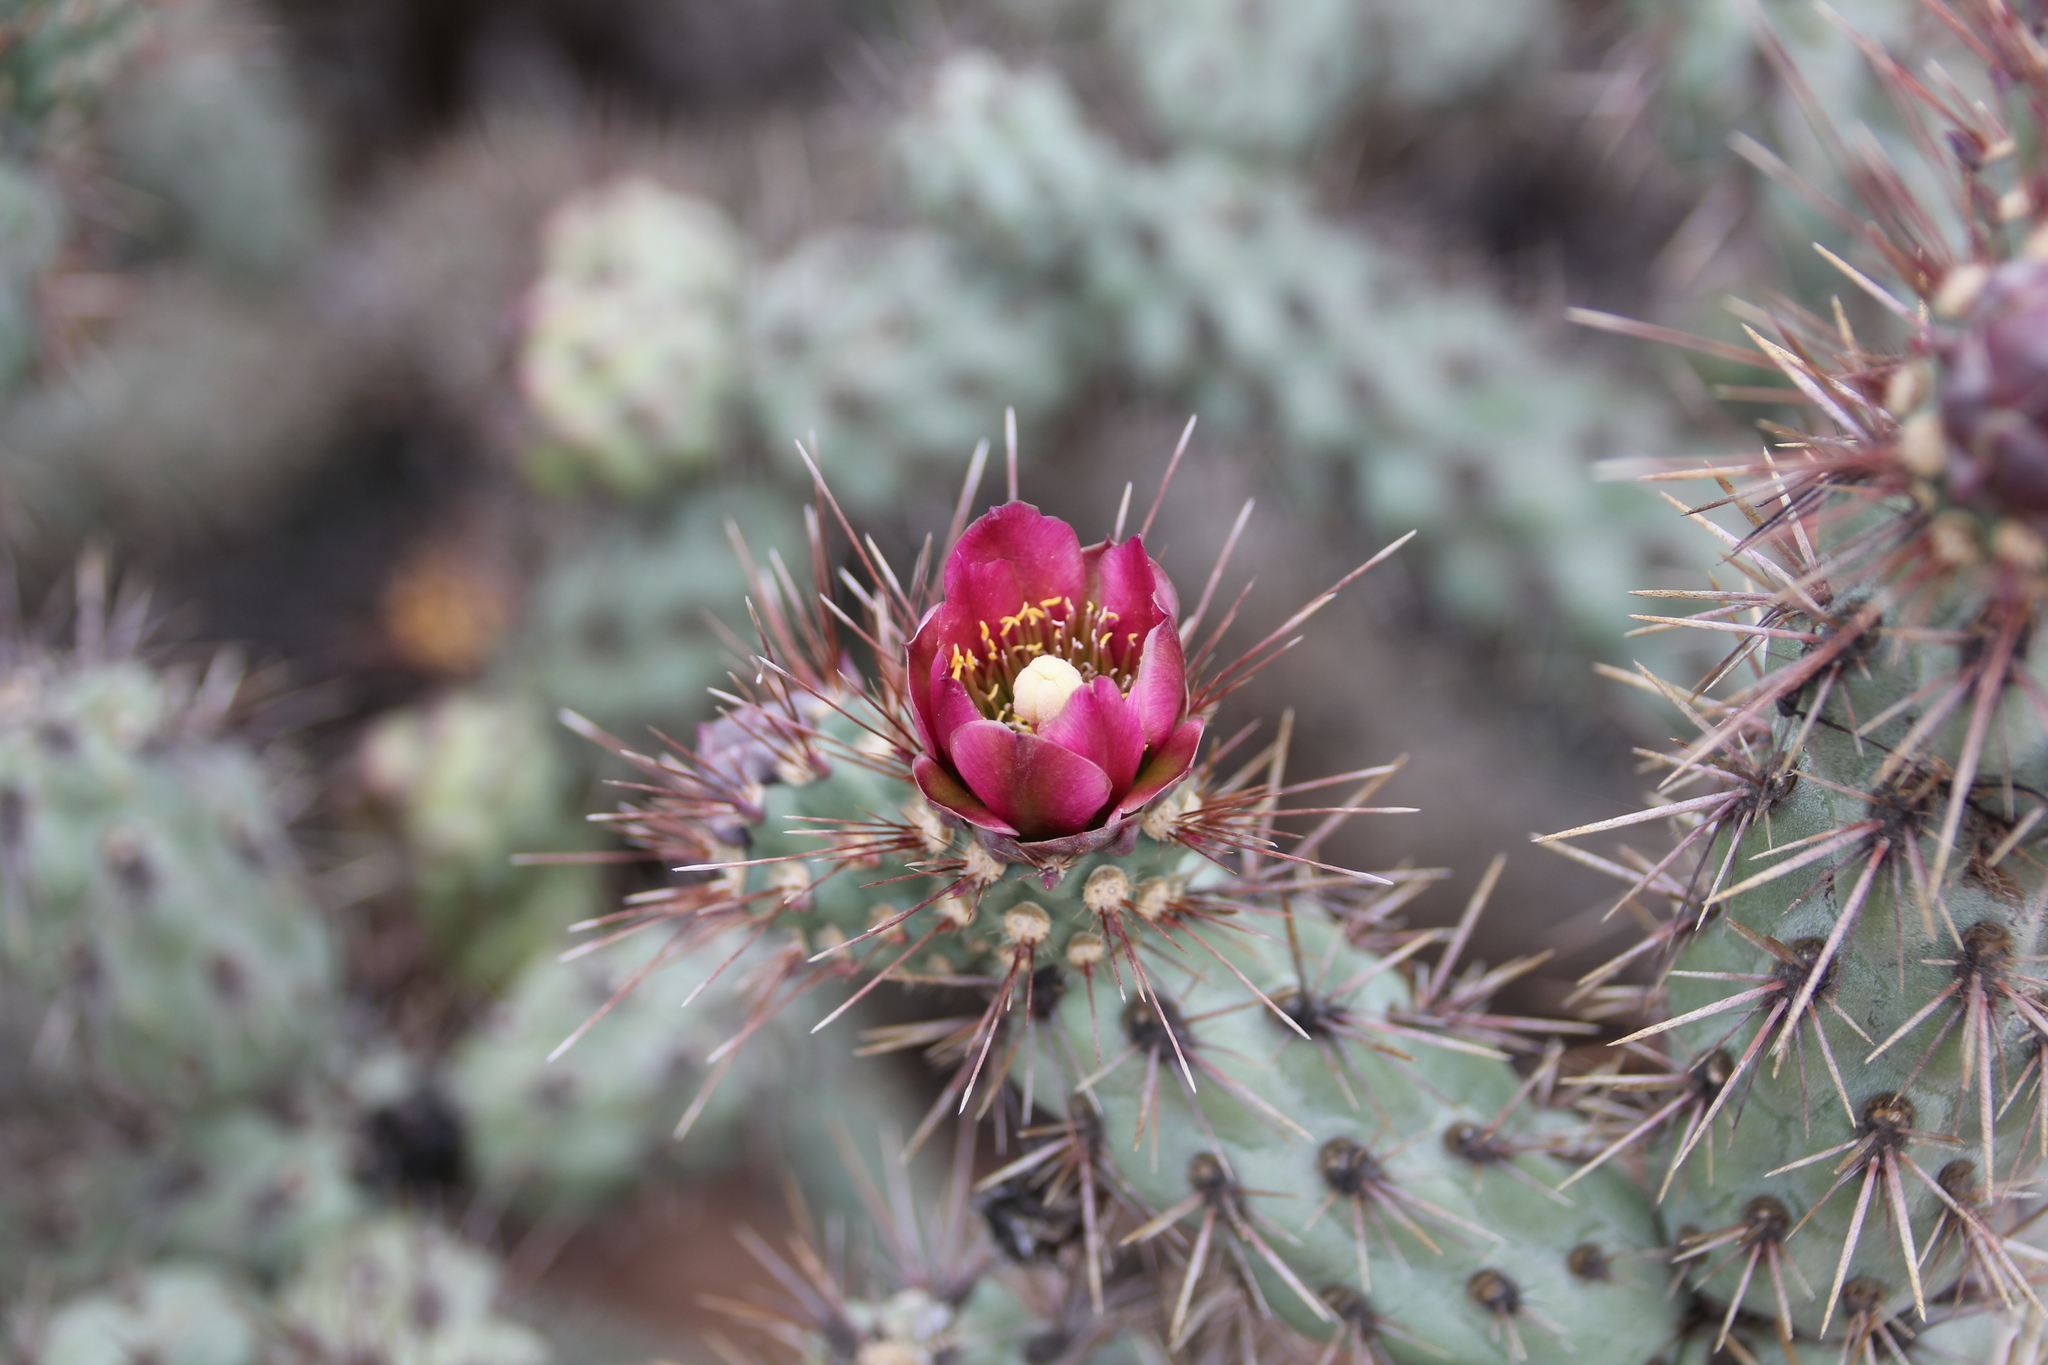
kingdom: Plantae
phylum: Tracheophyta
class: Magnoliopsida
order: Caryophyllales
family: Cactaceae
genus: Cylindropuntia
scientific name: Cylindropuntia prolifera
